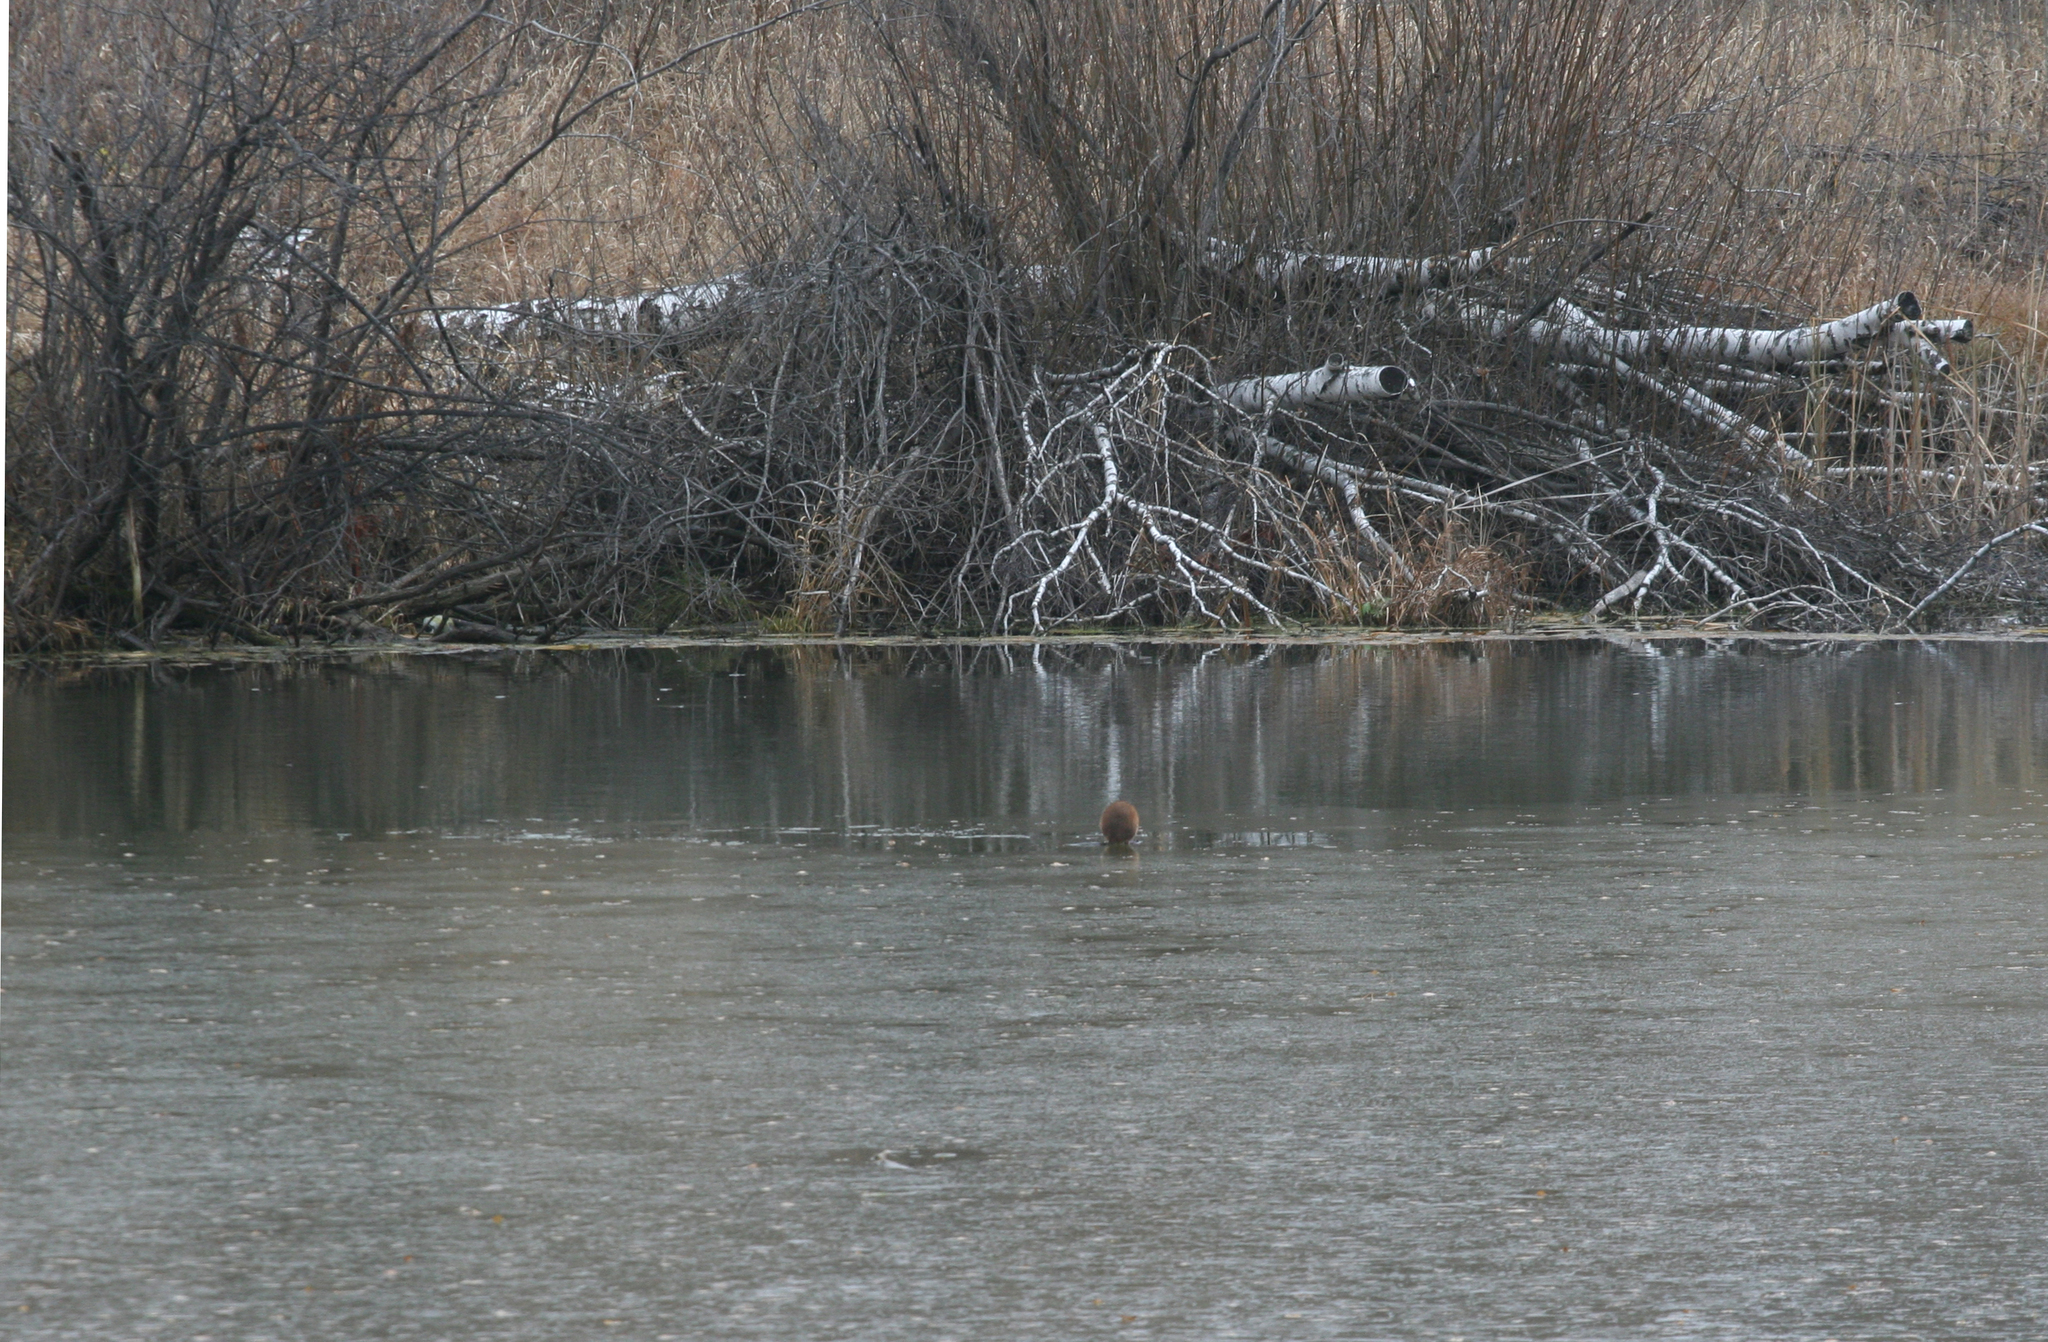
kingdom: Animalia
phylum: Chordata
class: Mammalia
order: Rodentia
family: Cricetidae
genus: Ondatra
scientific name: Ondatra zibethicus
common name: Muskrat
